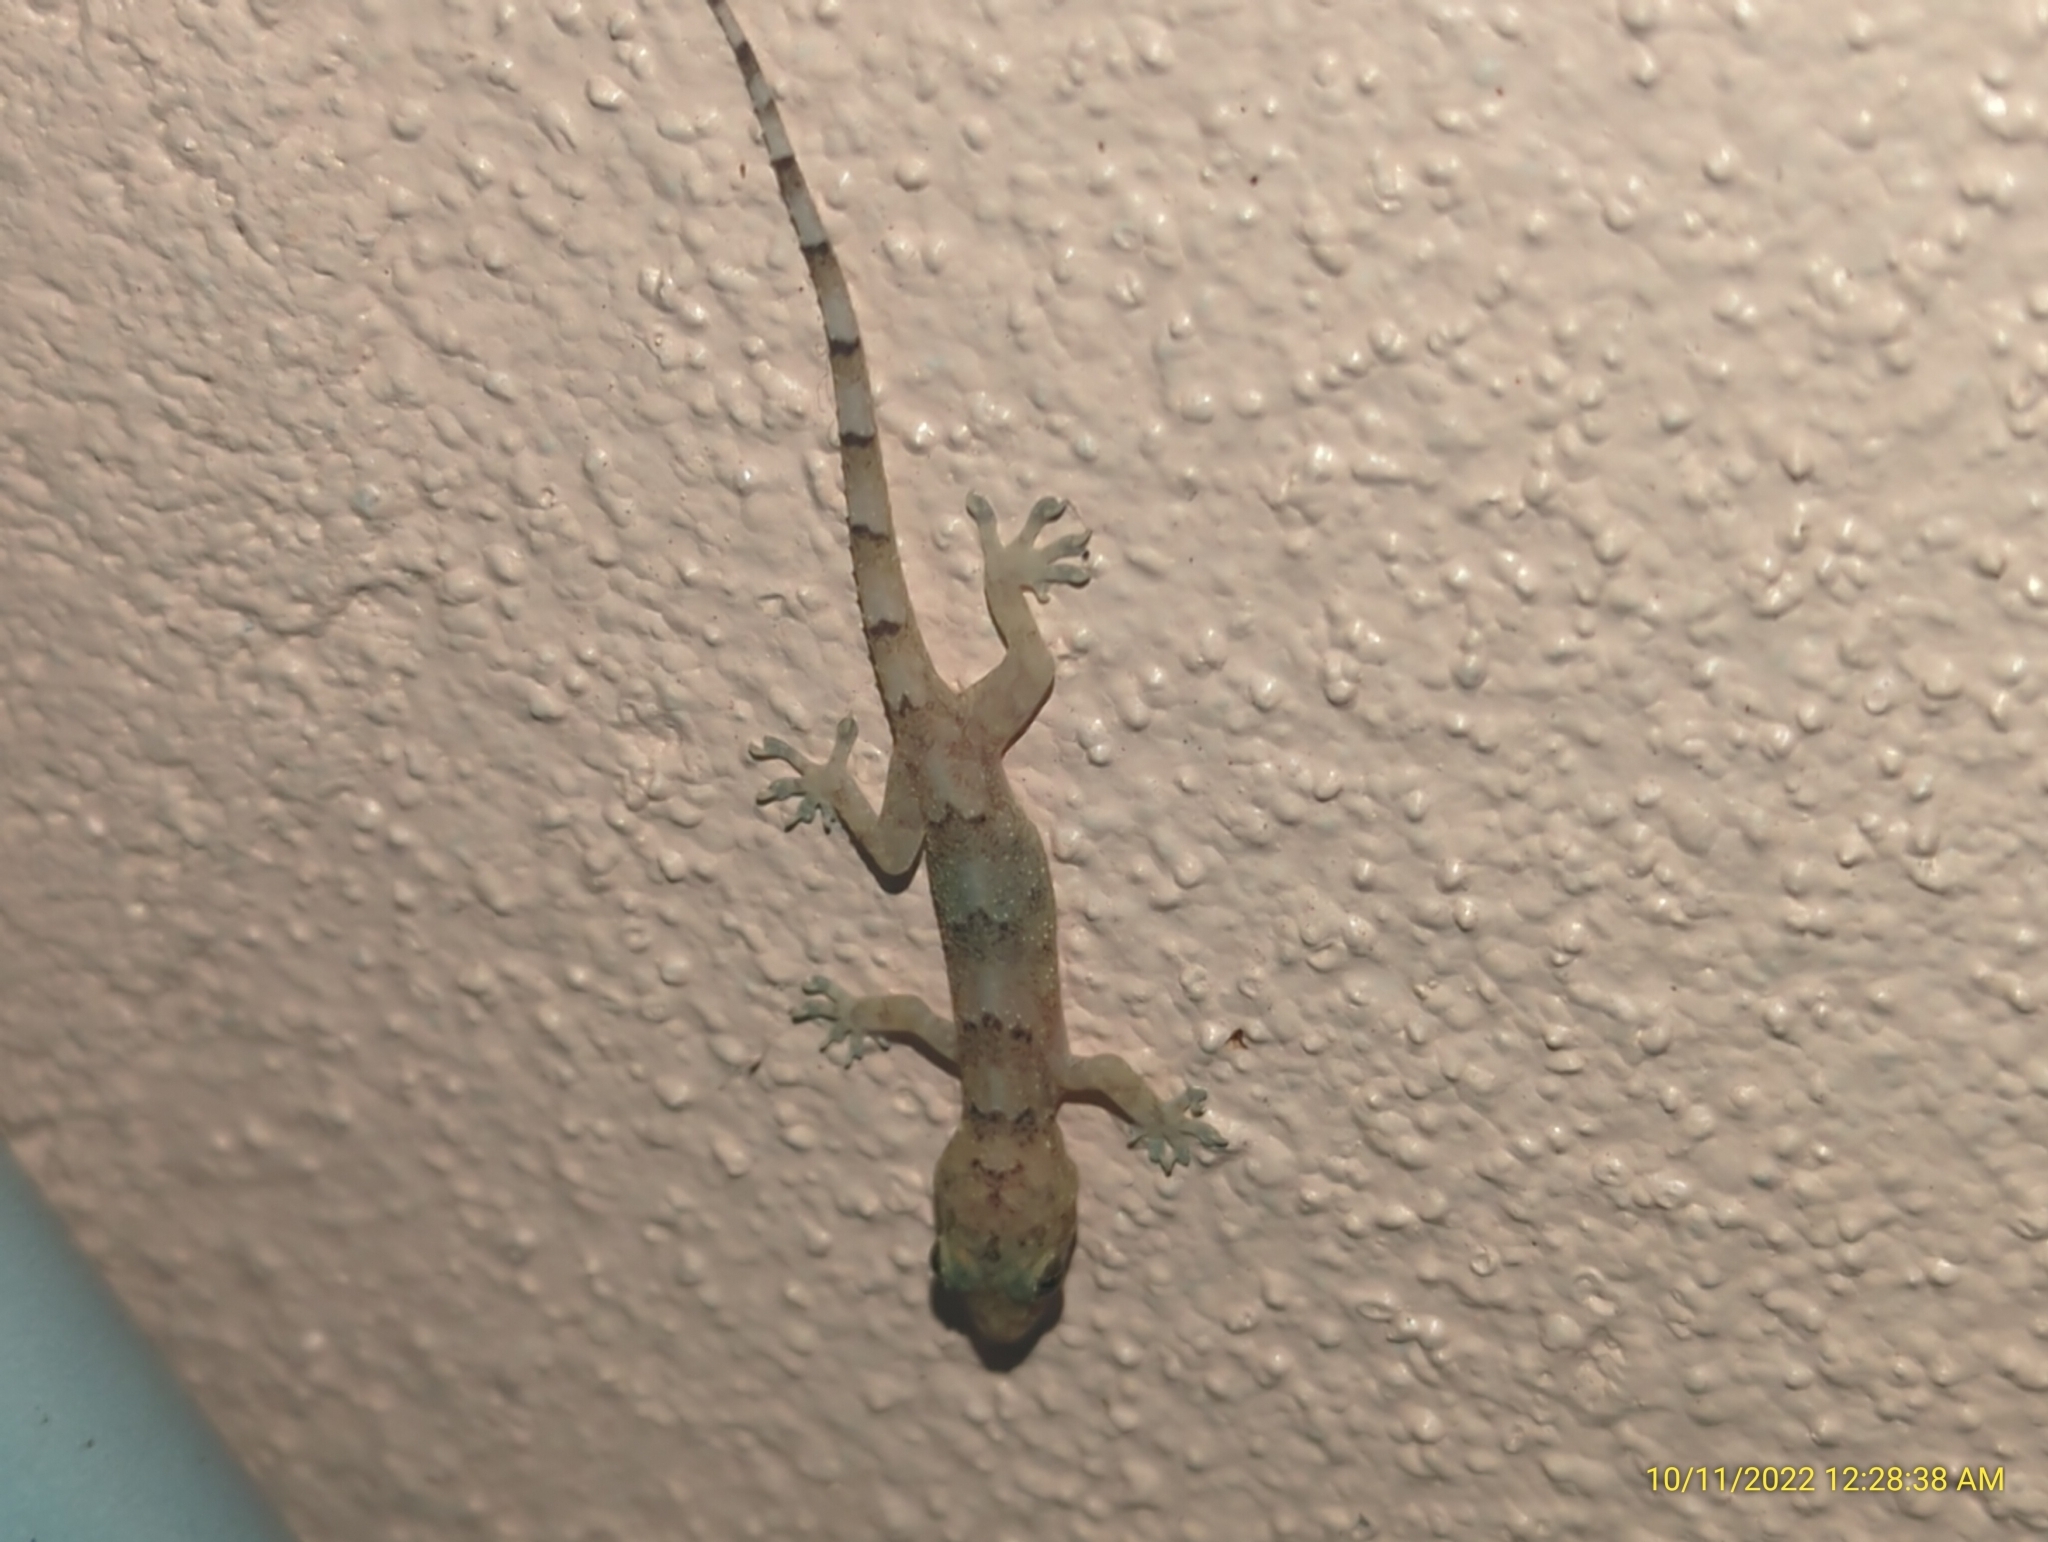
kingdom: Animalia
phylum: Chordata
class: Squamata
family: Gekkonidae
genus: Hemidactylus
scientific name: Hemidactylus mabouia
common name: House gecko
